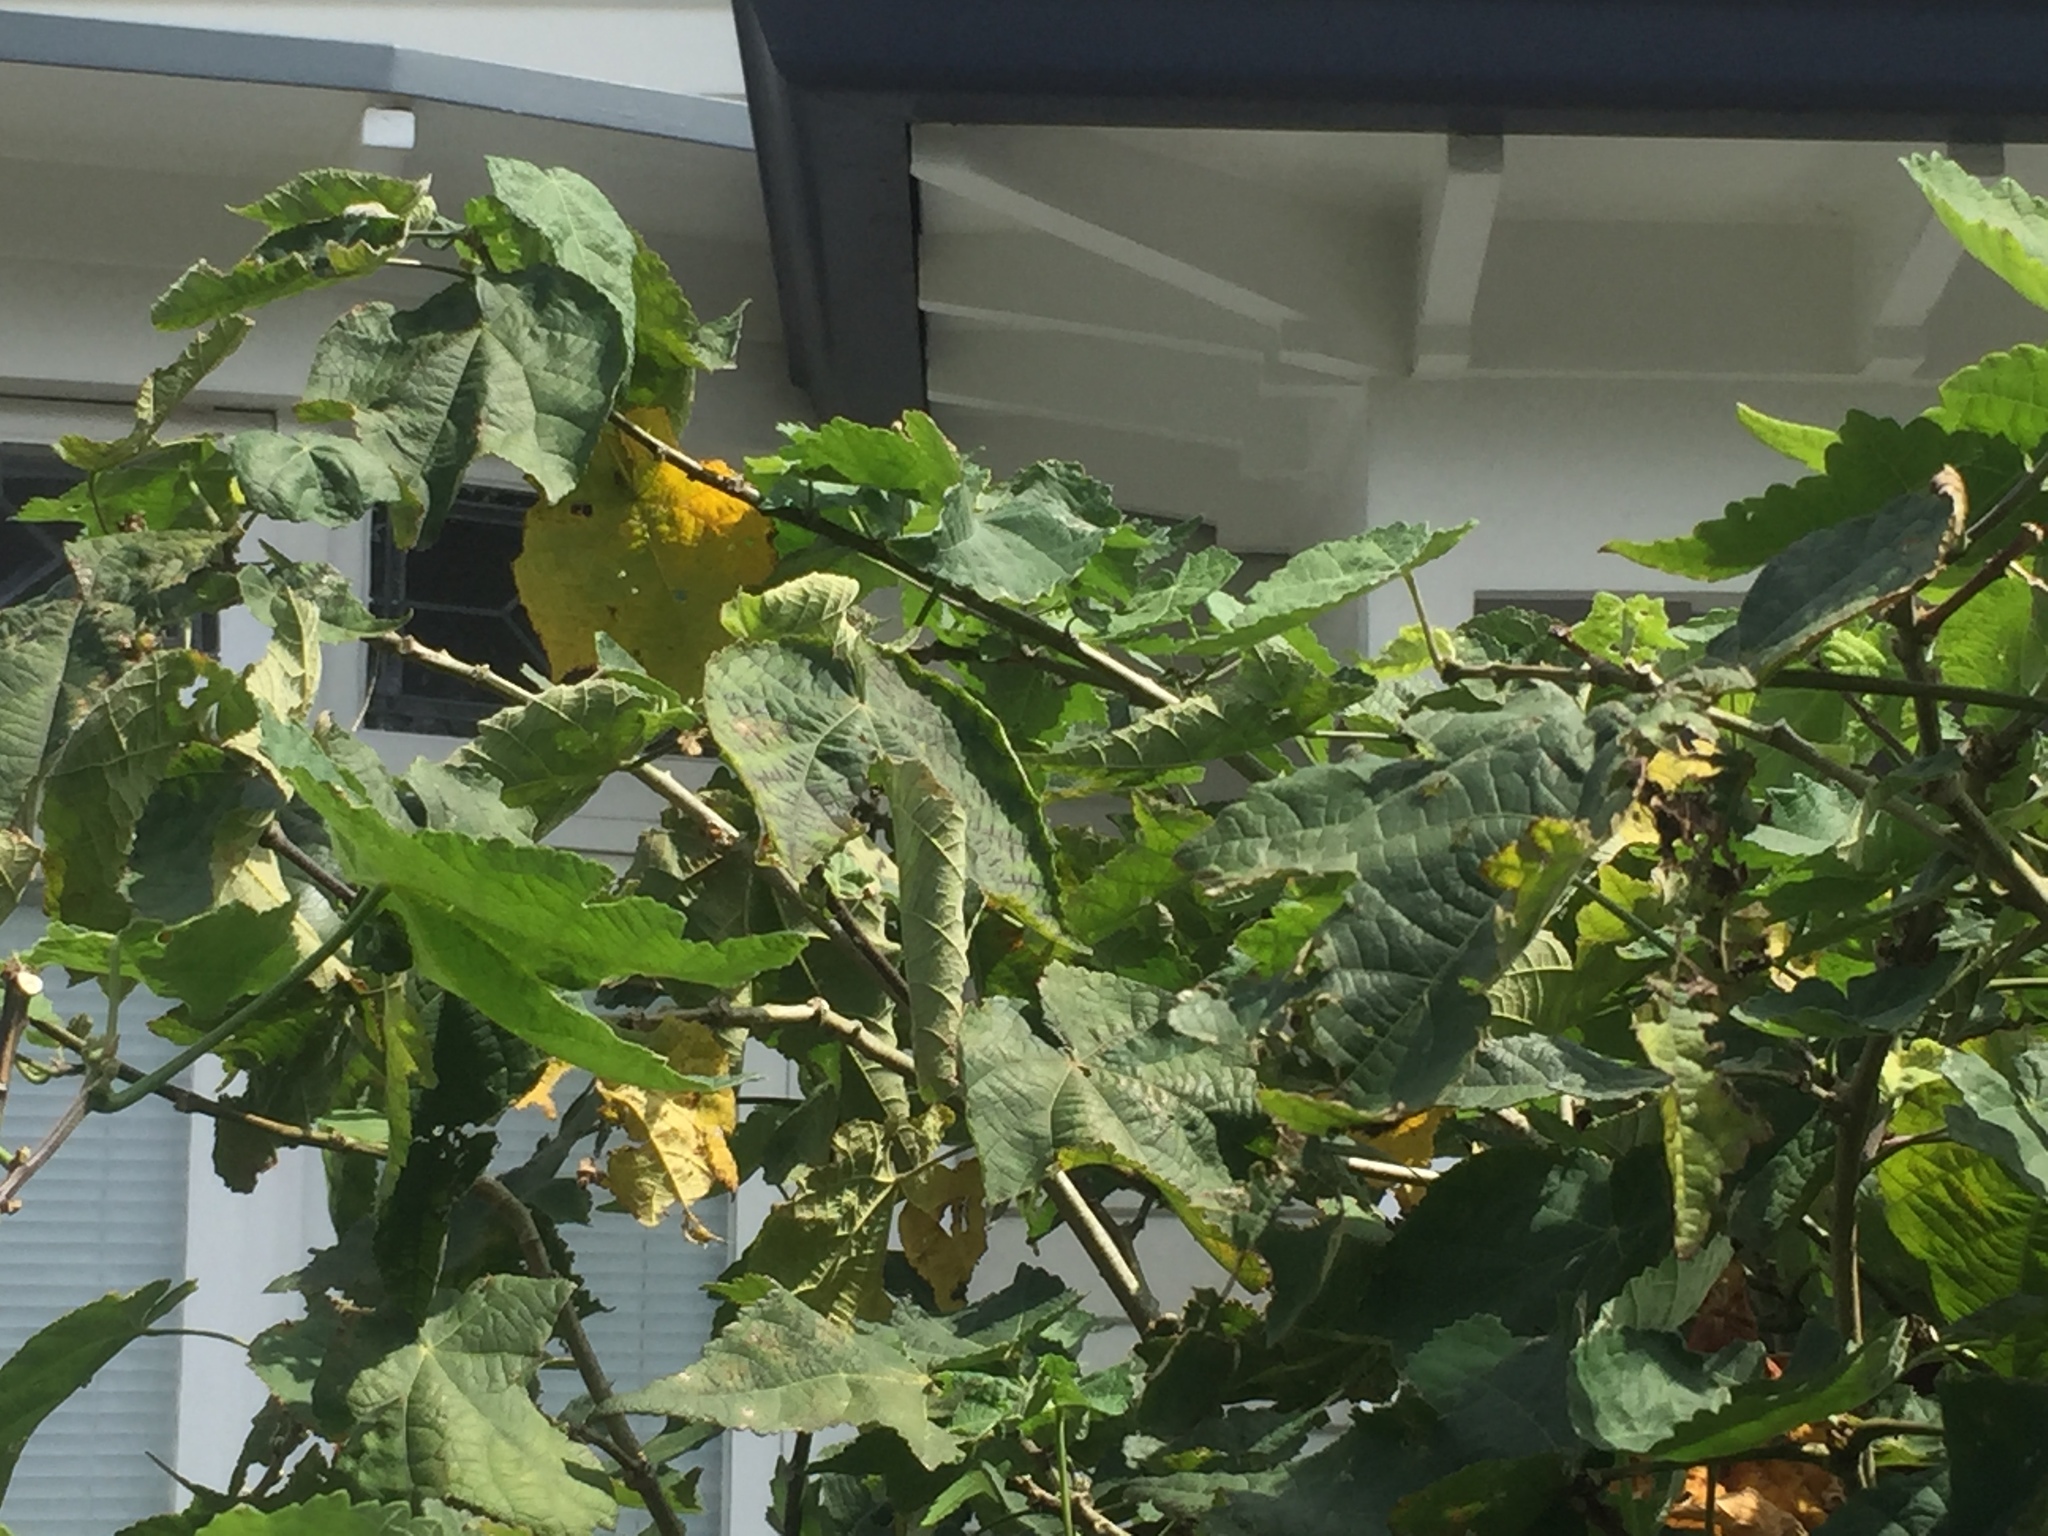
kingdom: Animalia
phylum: Arthropoda
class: Insecta
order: Lepidoptera
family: Crambidae
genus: Haritalodes
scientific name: Haritalodes derogata
